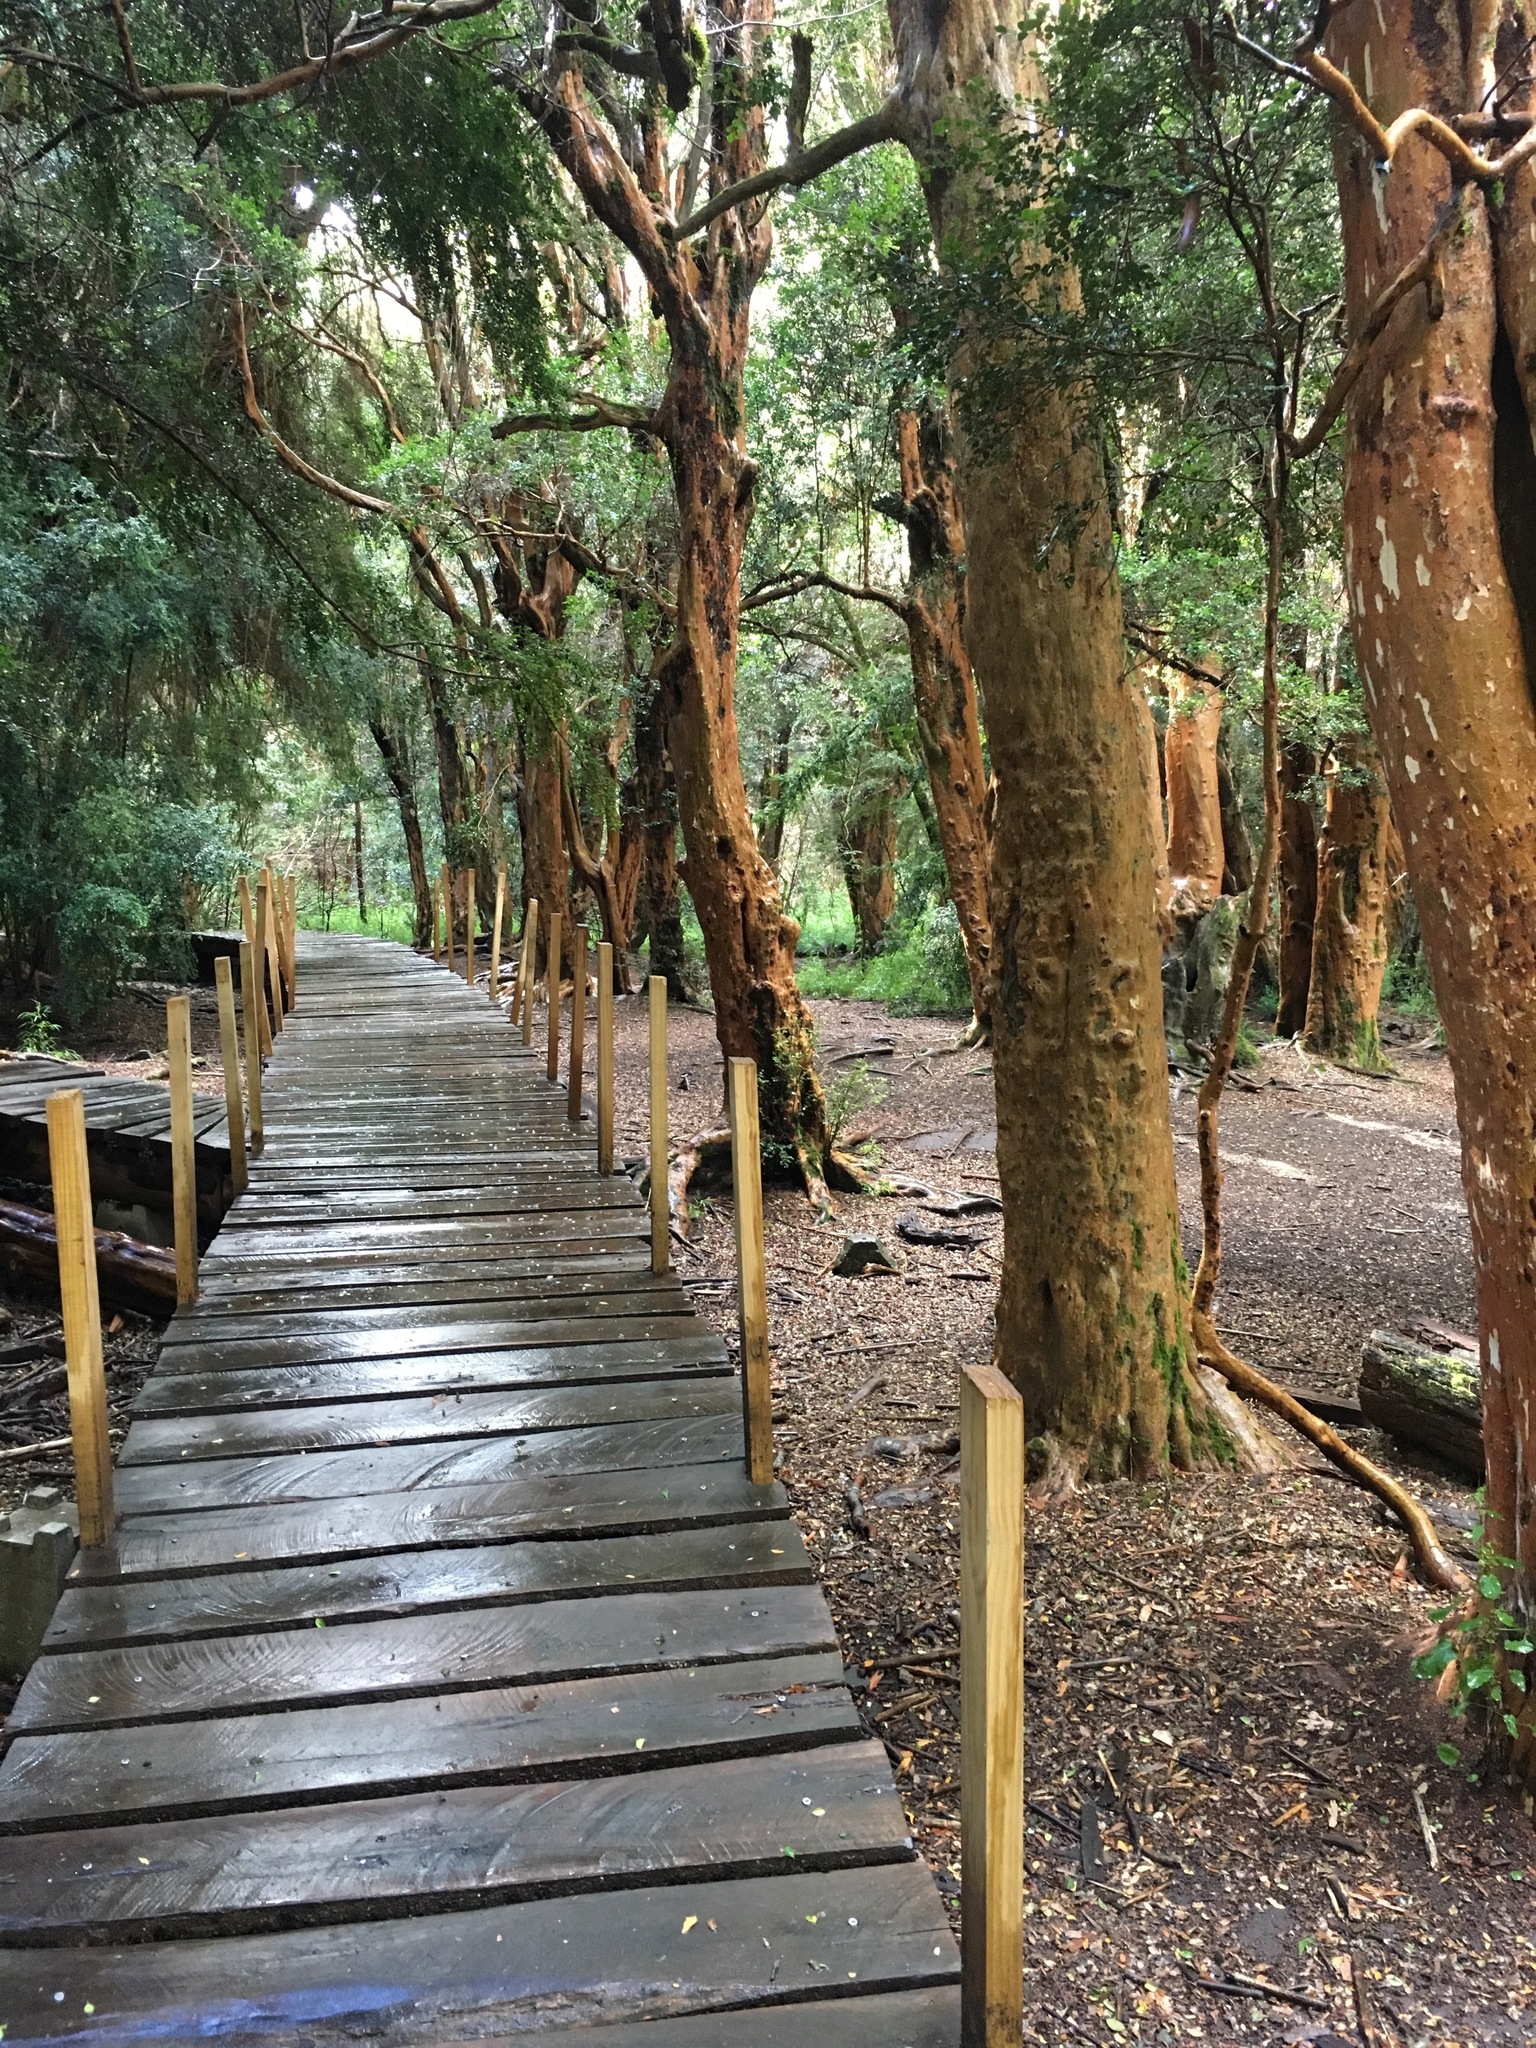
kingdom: Plantae
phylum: Tracheophyta
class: Magnoliopsida
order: Myrtales
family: Myrtaceae
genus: Luma
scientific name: Luma apiculata
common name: Chilean myrtle
